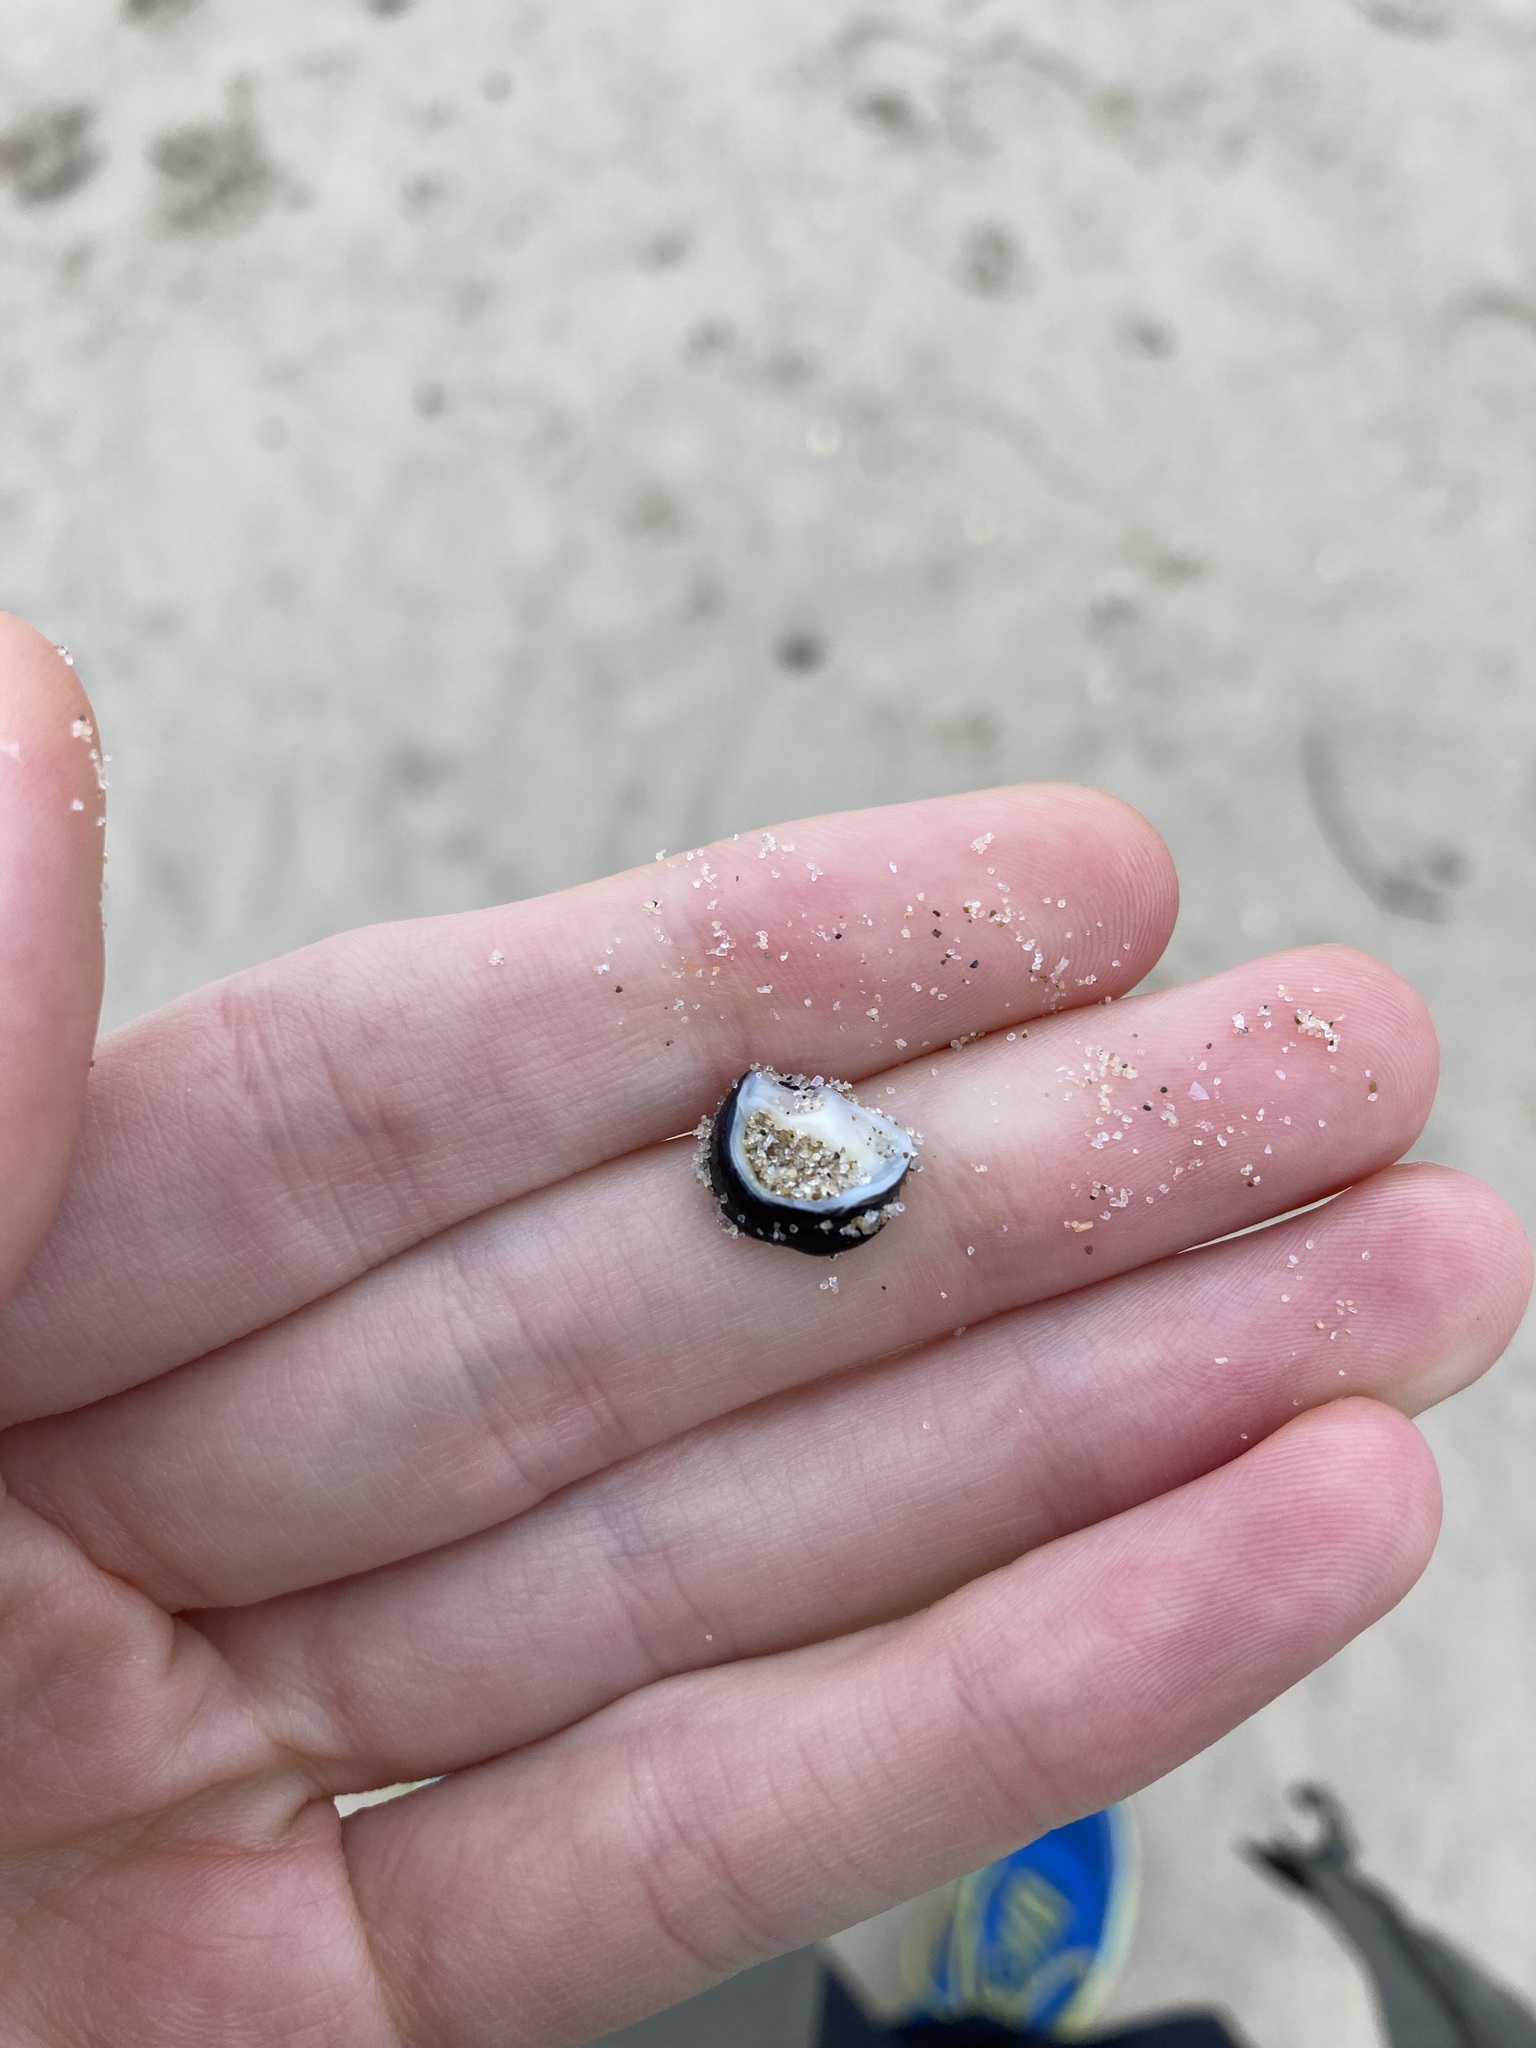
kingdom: Animalia
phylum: Mollusca
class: Gastropoda
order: Cycloneritida
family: Neritidae
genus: Nerita
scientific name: Nerita melanotragus
